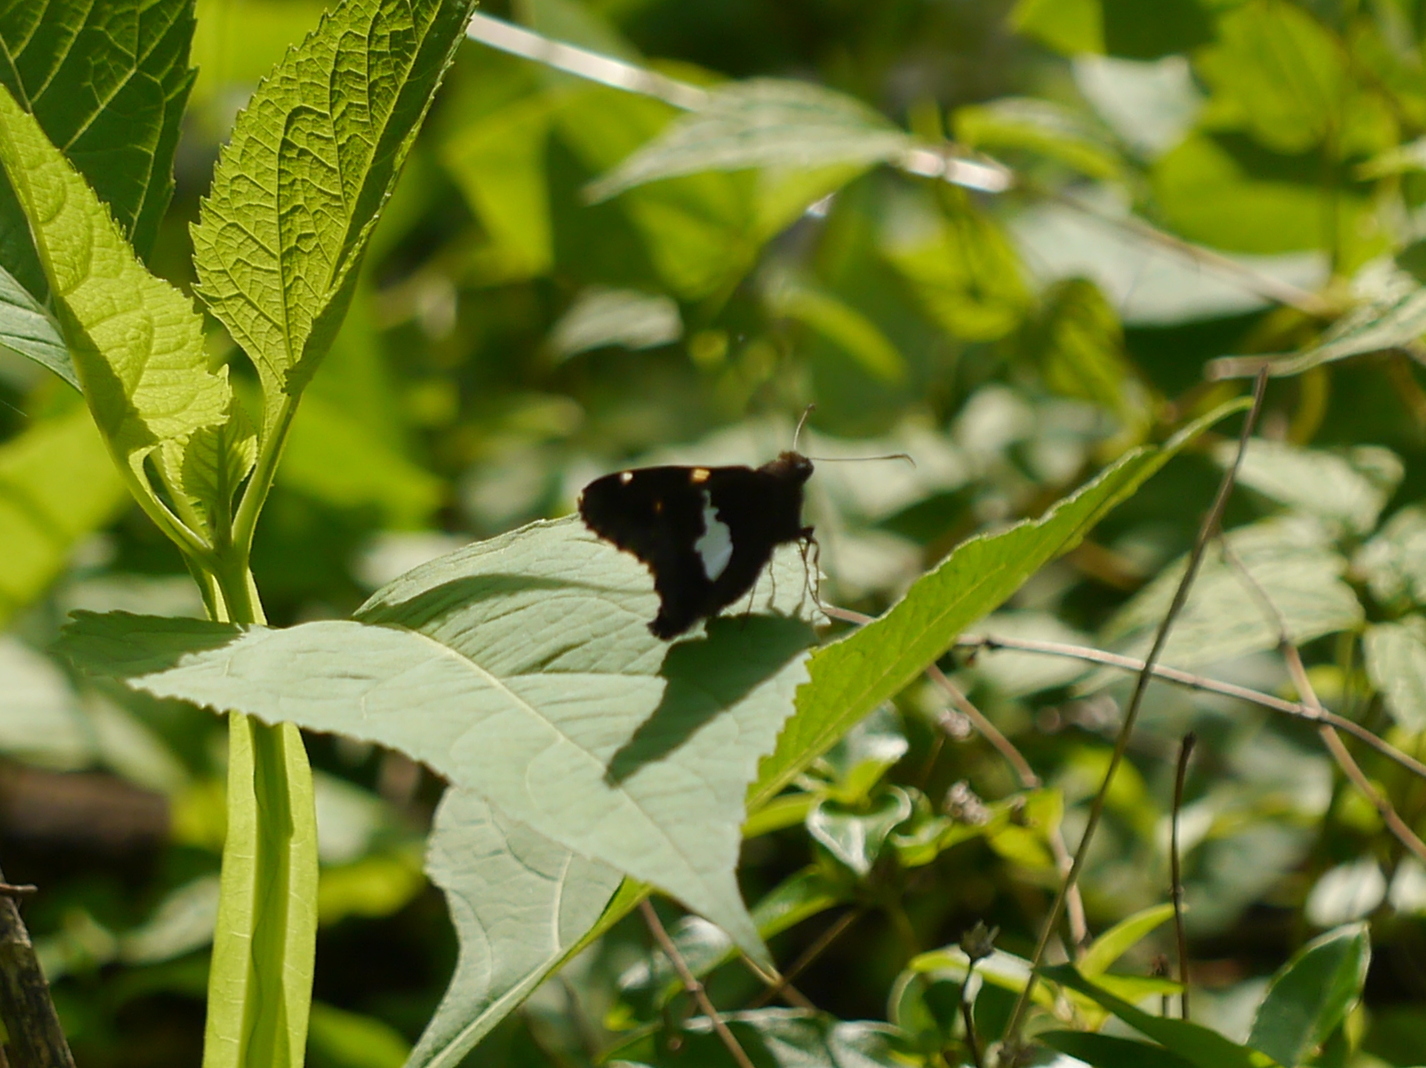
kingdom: Animalia
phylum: Arthropoda
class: Insecta
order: Lepidoptera
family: Hesperiidae
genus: Epargyreus
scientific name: Epargyreus clarus
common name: Silver-spotted skipper
